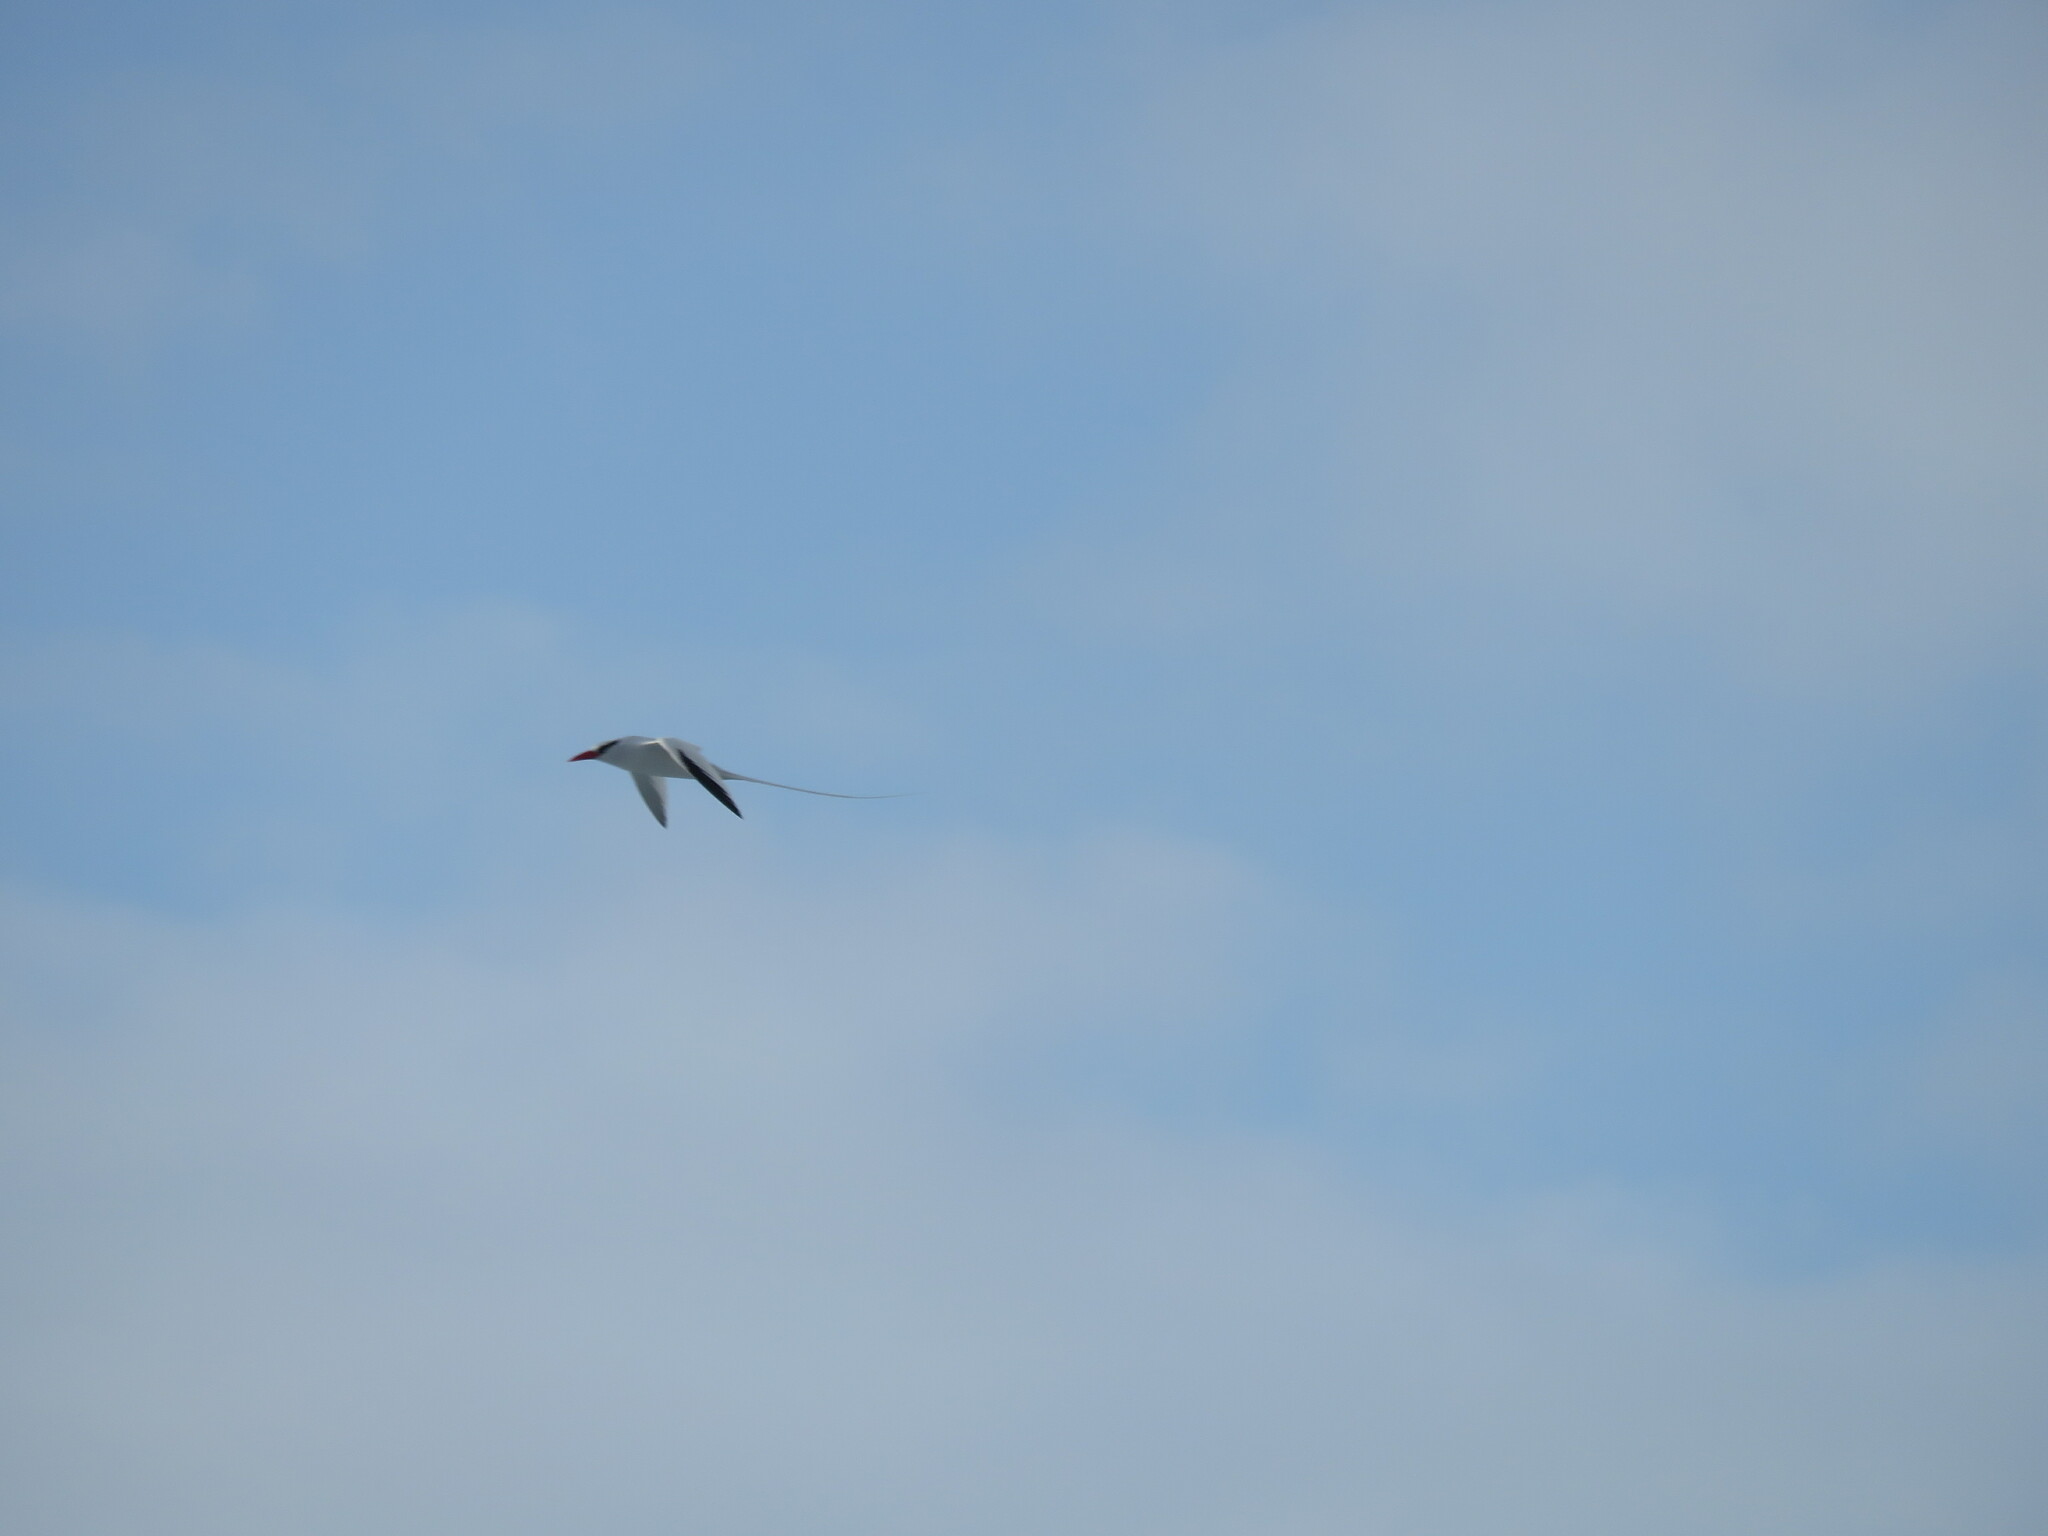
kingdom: Animalia
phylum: Chordata
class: Aves
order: Phaethontiformes
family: Phaethontidae
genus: Phaethon
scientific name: Phaethon aethereus
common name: Red-billed tropicbird
